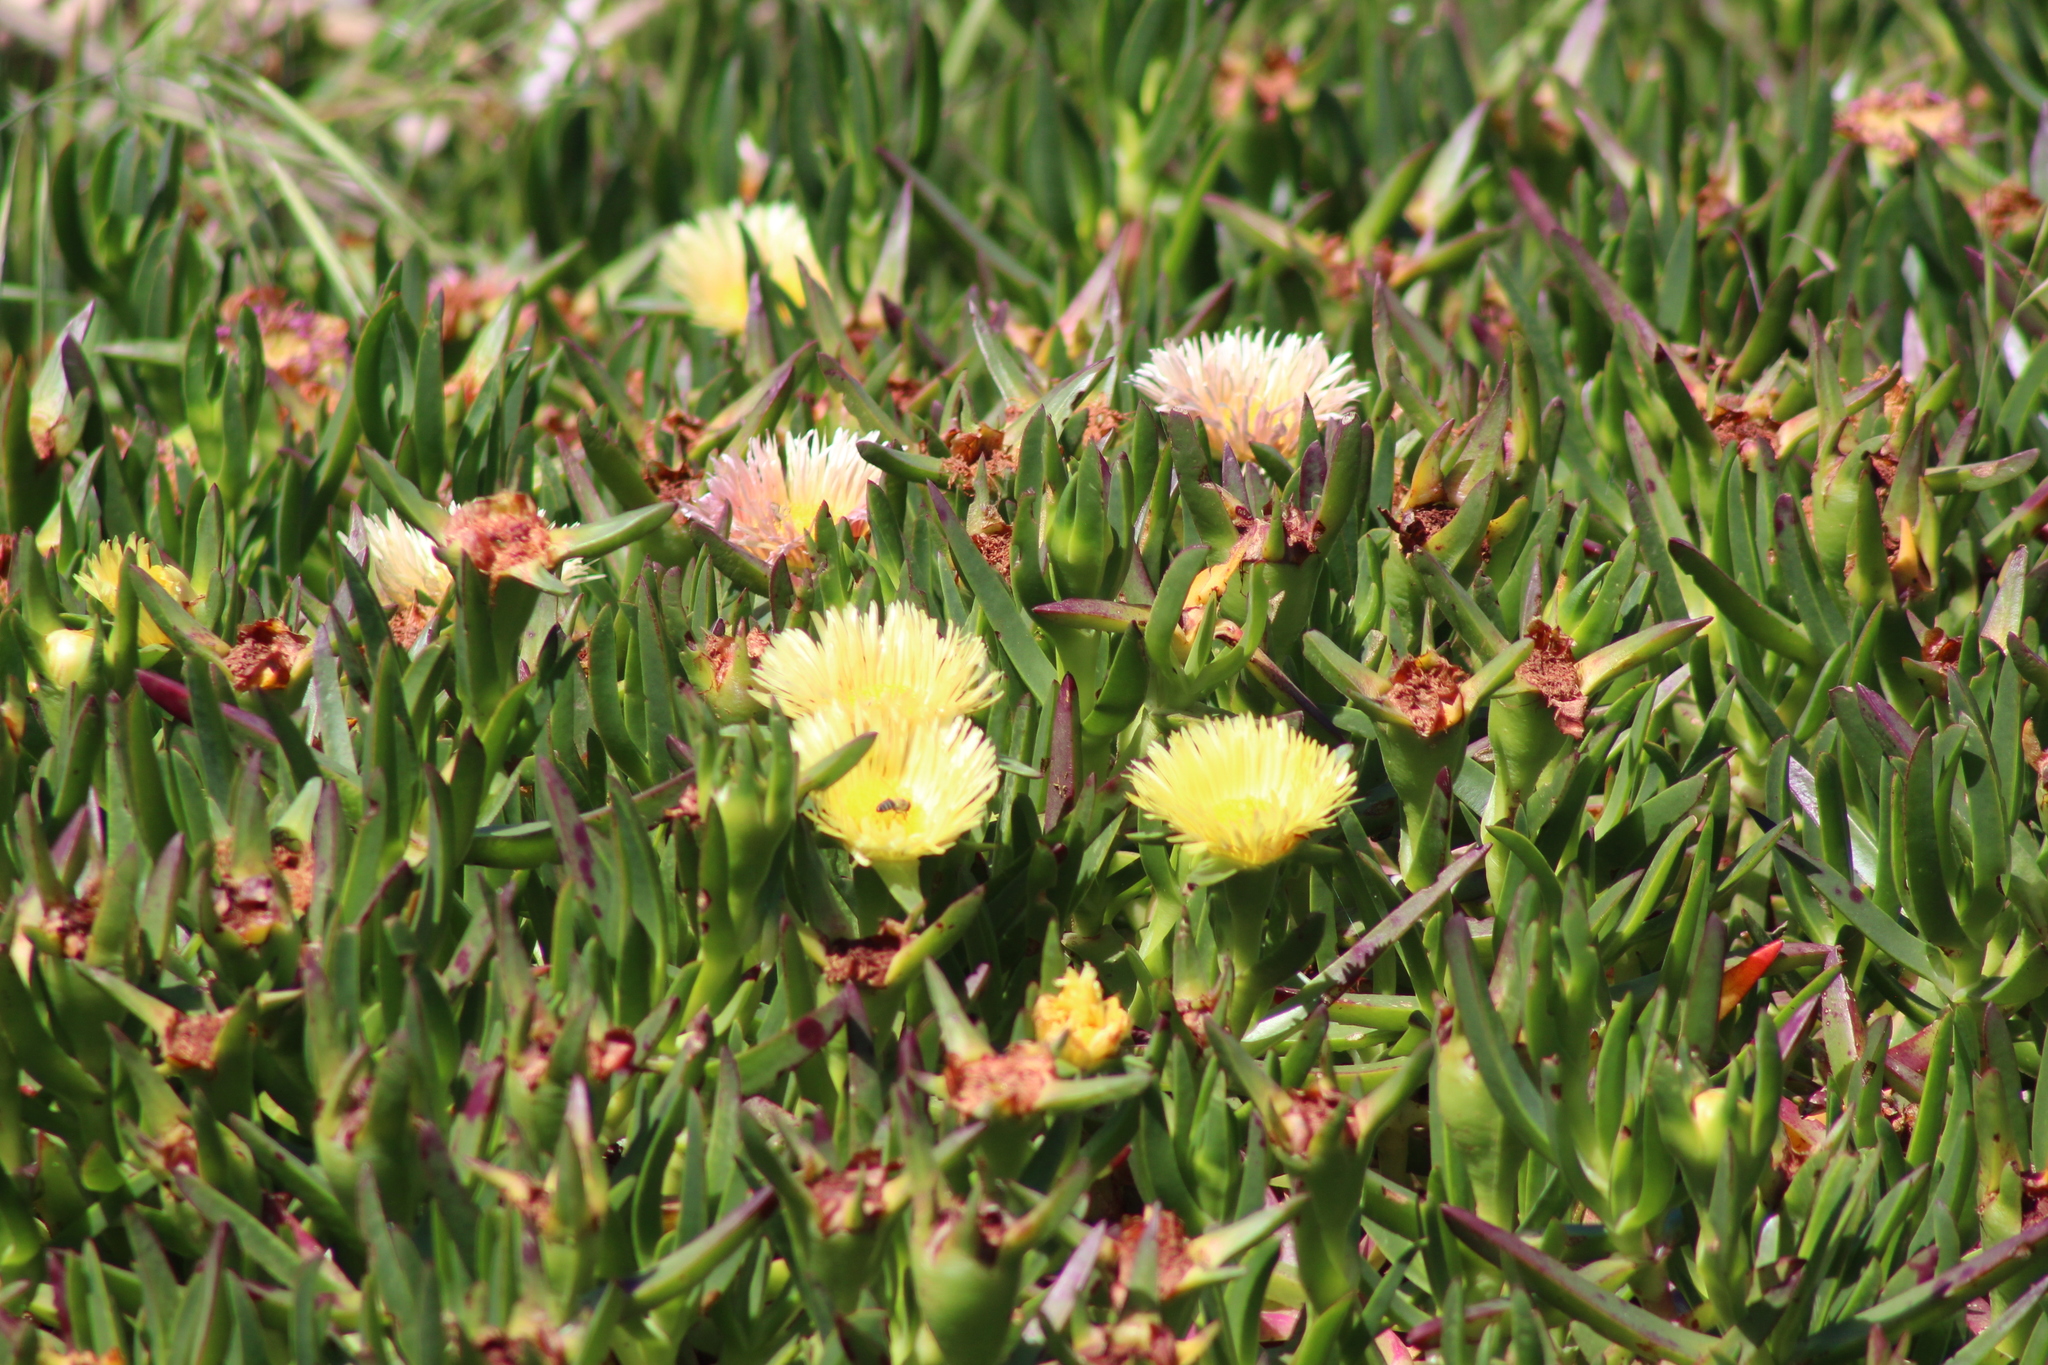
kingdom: Plantae
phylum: Tracheophyta
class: Magnoliopsida
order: Caryophyllales
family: Aizoaceae
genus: Carpobrotus
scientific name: Carpobrotus edulis
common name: Hottentot-fig
